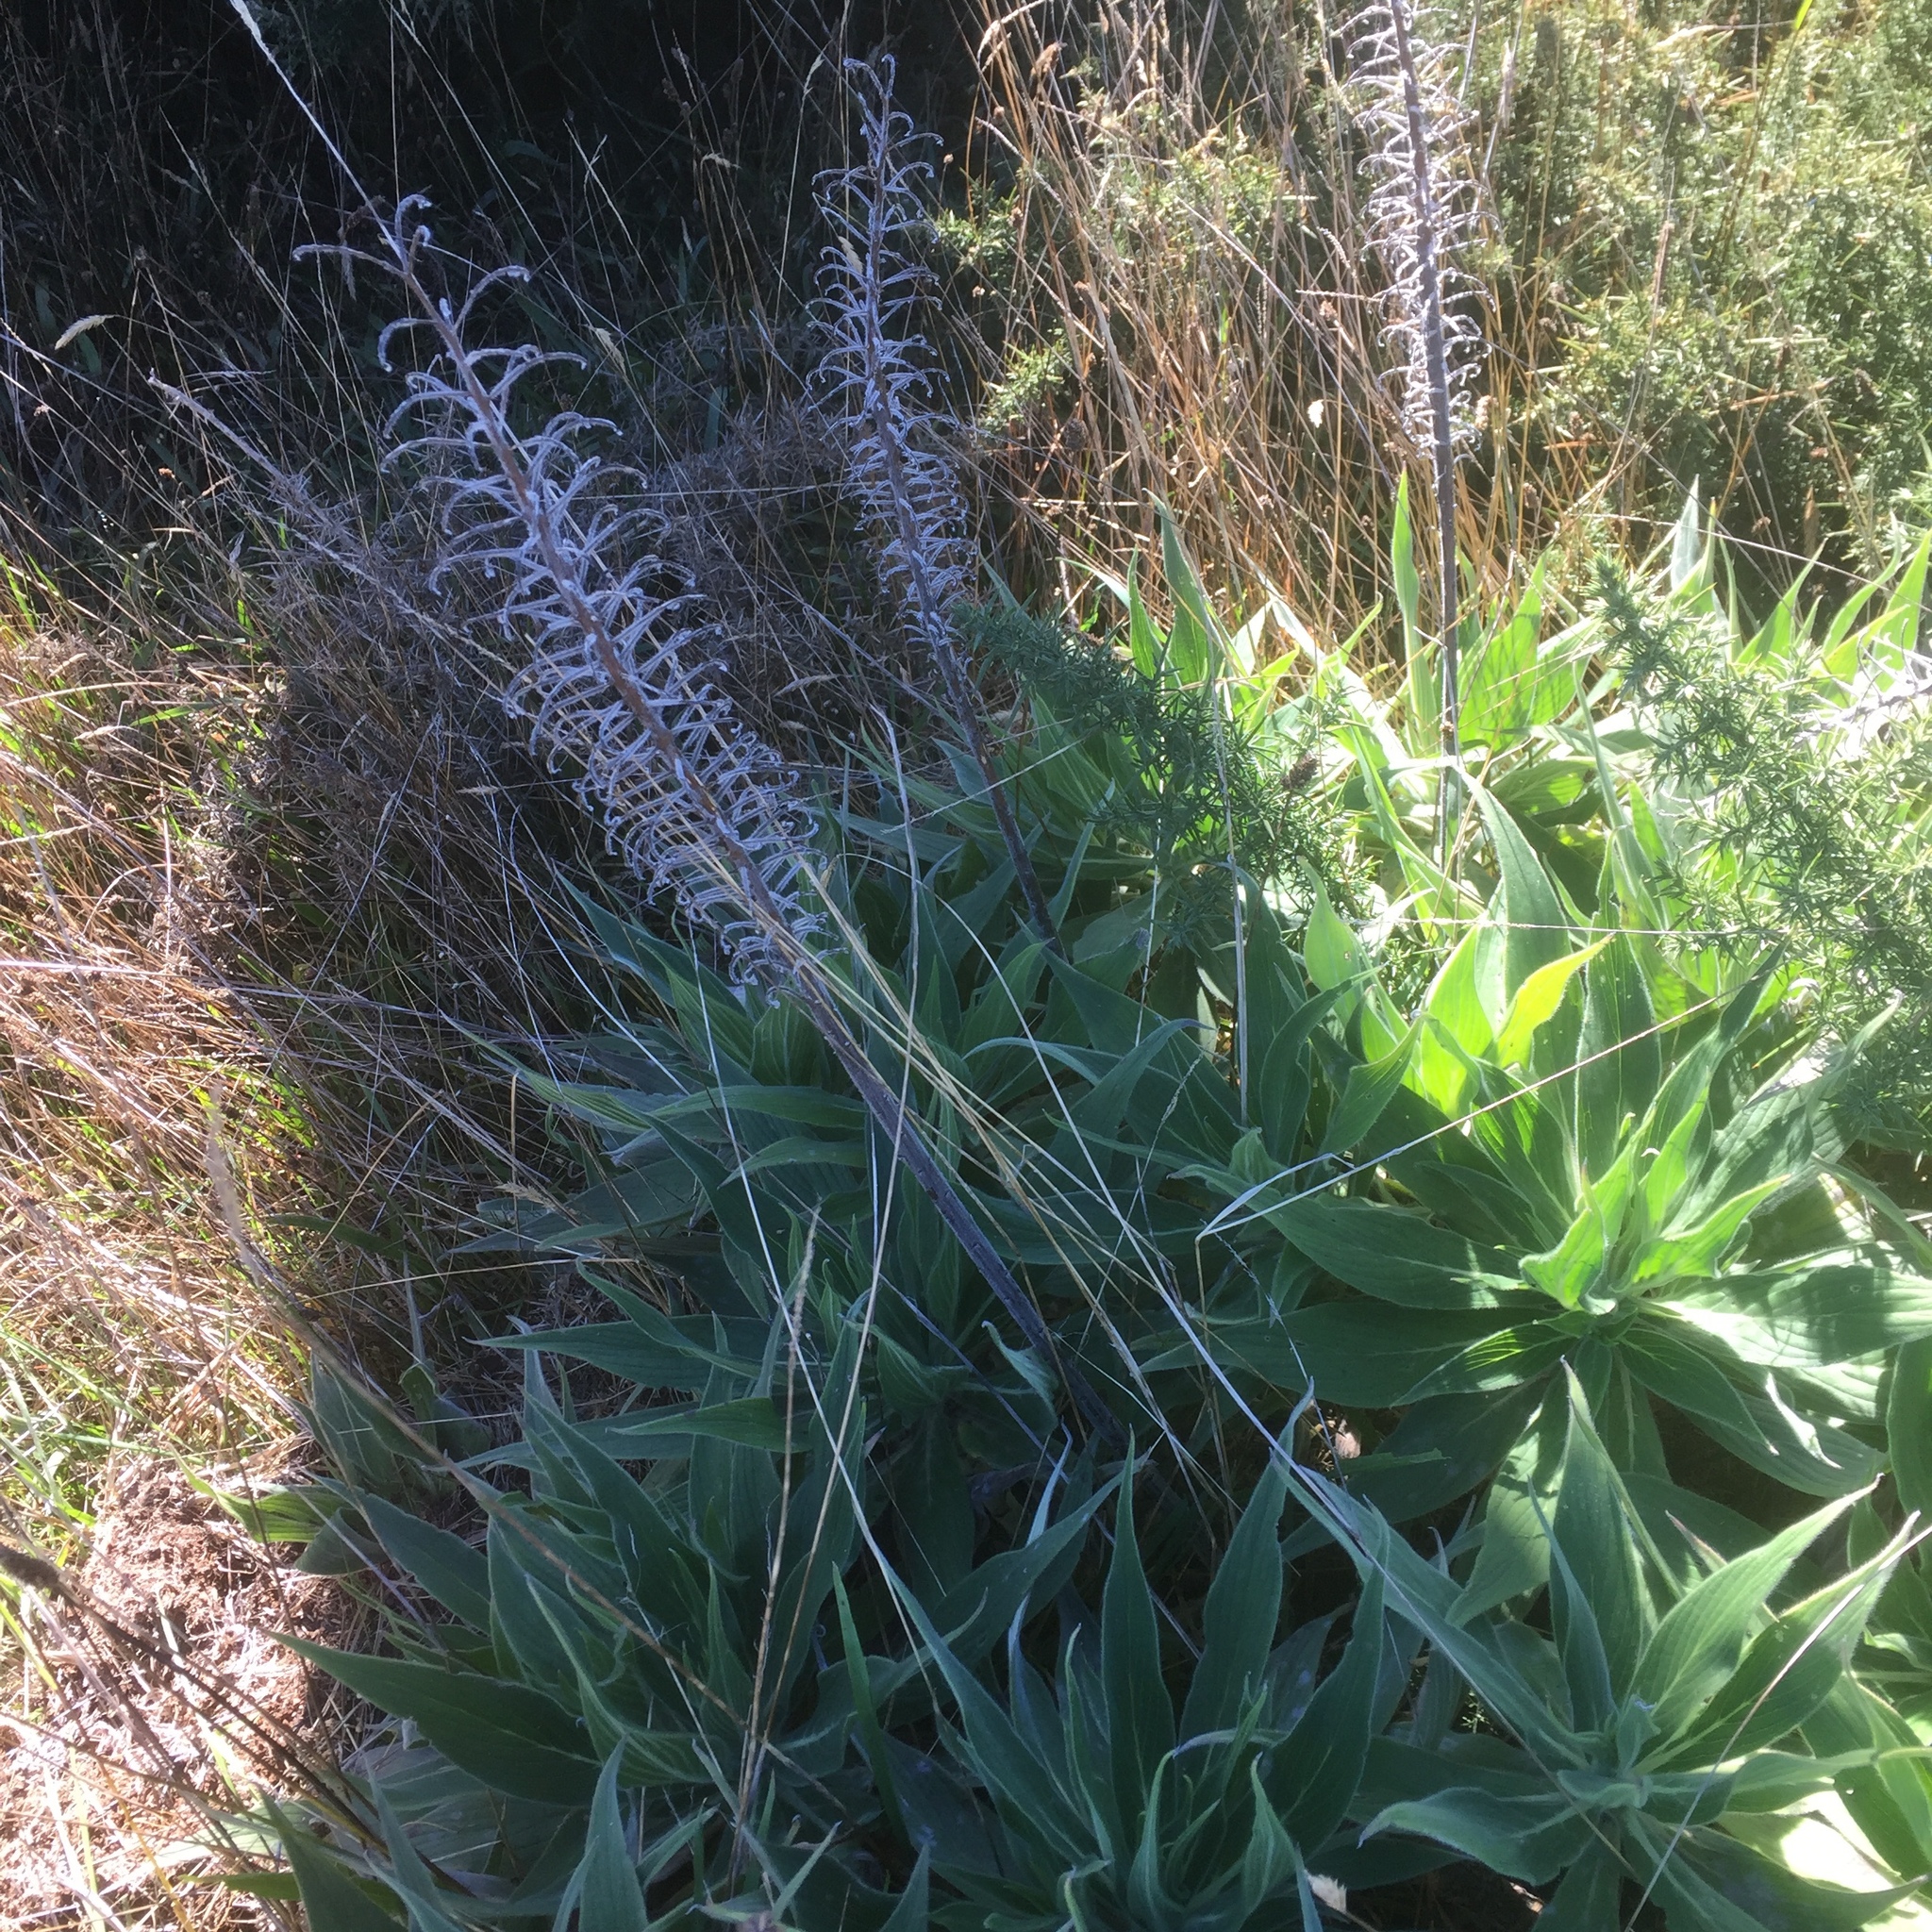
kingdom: Plantae
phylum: Tracheophyta
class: Magnoliopsida
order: Boraginales
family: Boraginaceae
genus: Echium
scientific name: Echium candicans
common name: Pride of madeira
